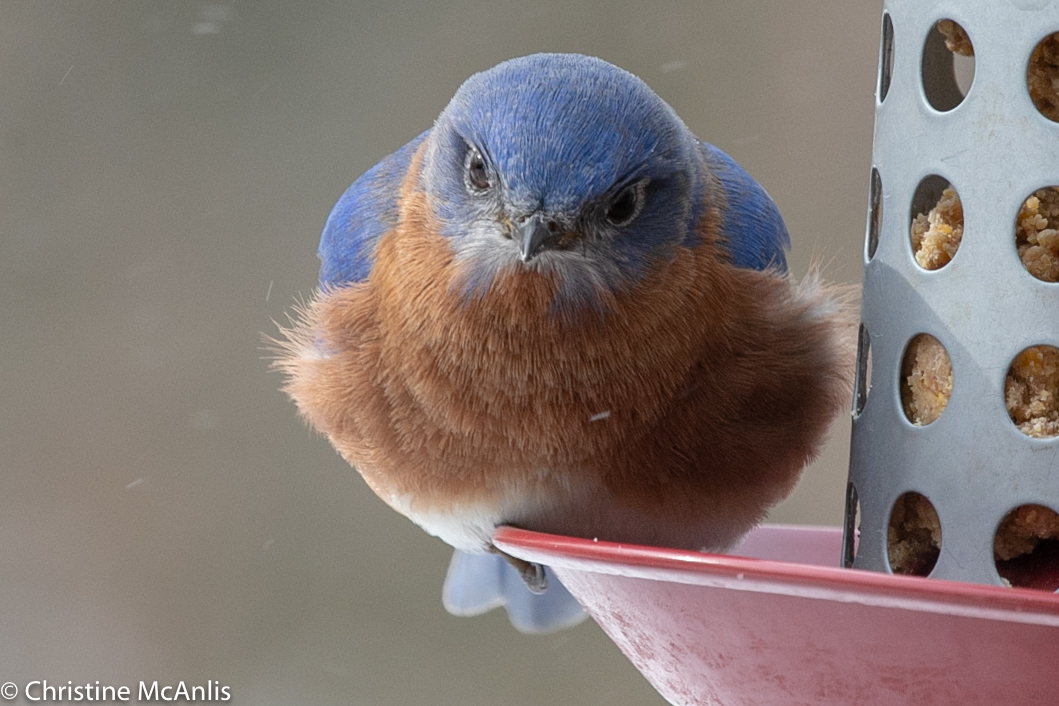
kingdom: Animalia
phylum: Chordata
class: Aves
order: Passeriformes
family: Turdidae
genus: Sialia
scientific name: Sialia sialis
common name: Eastern bluebird
